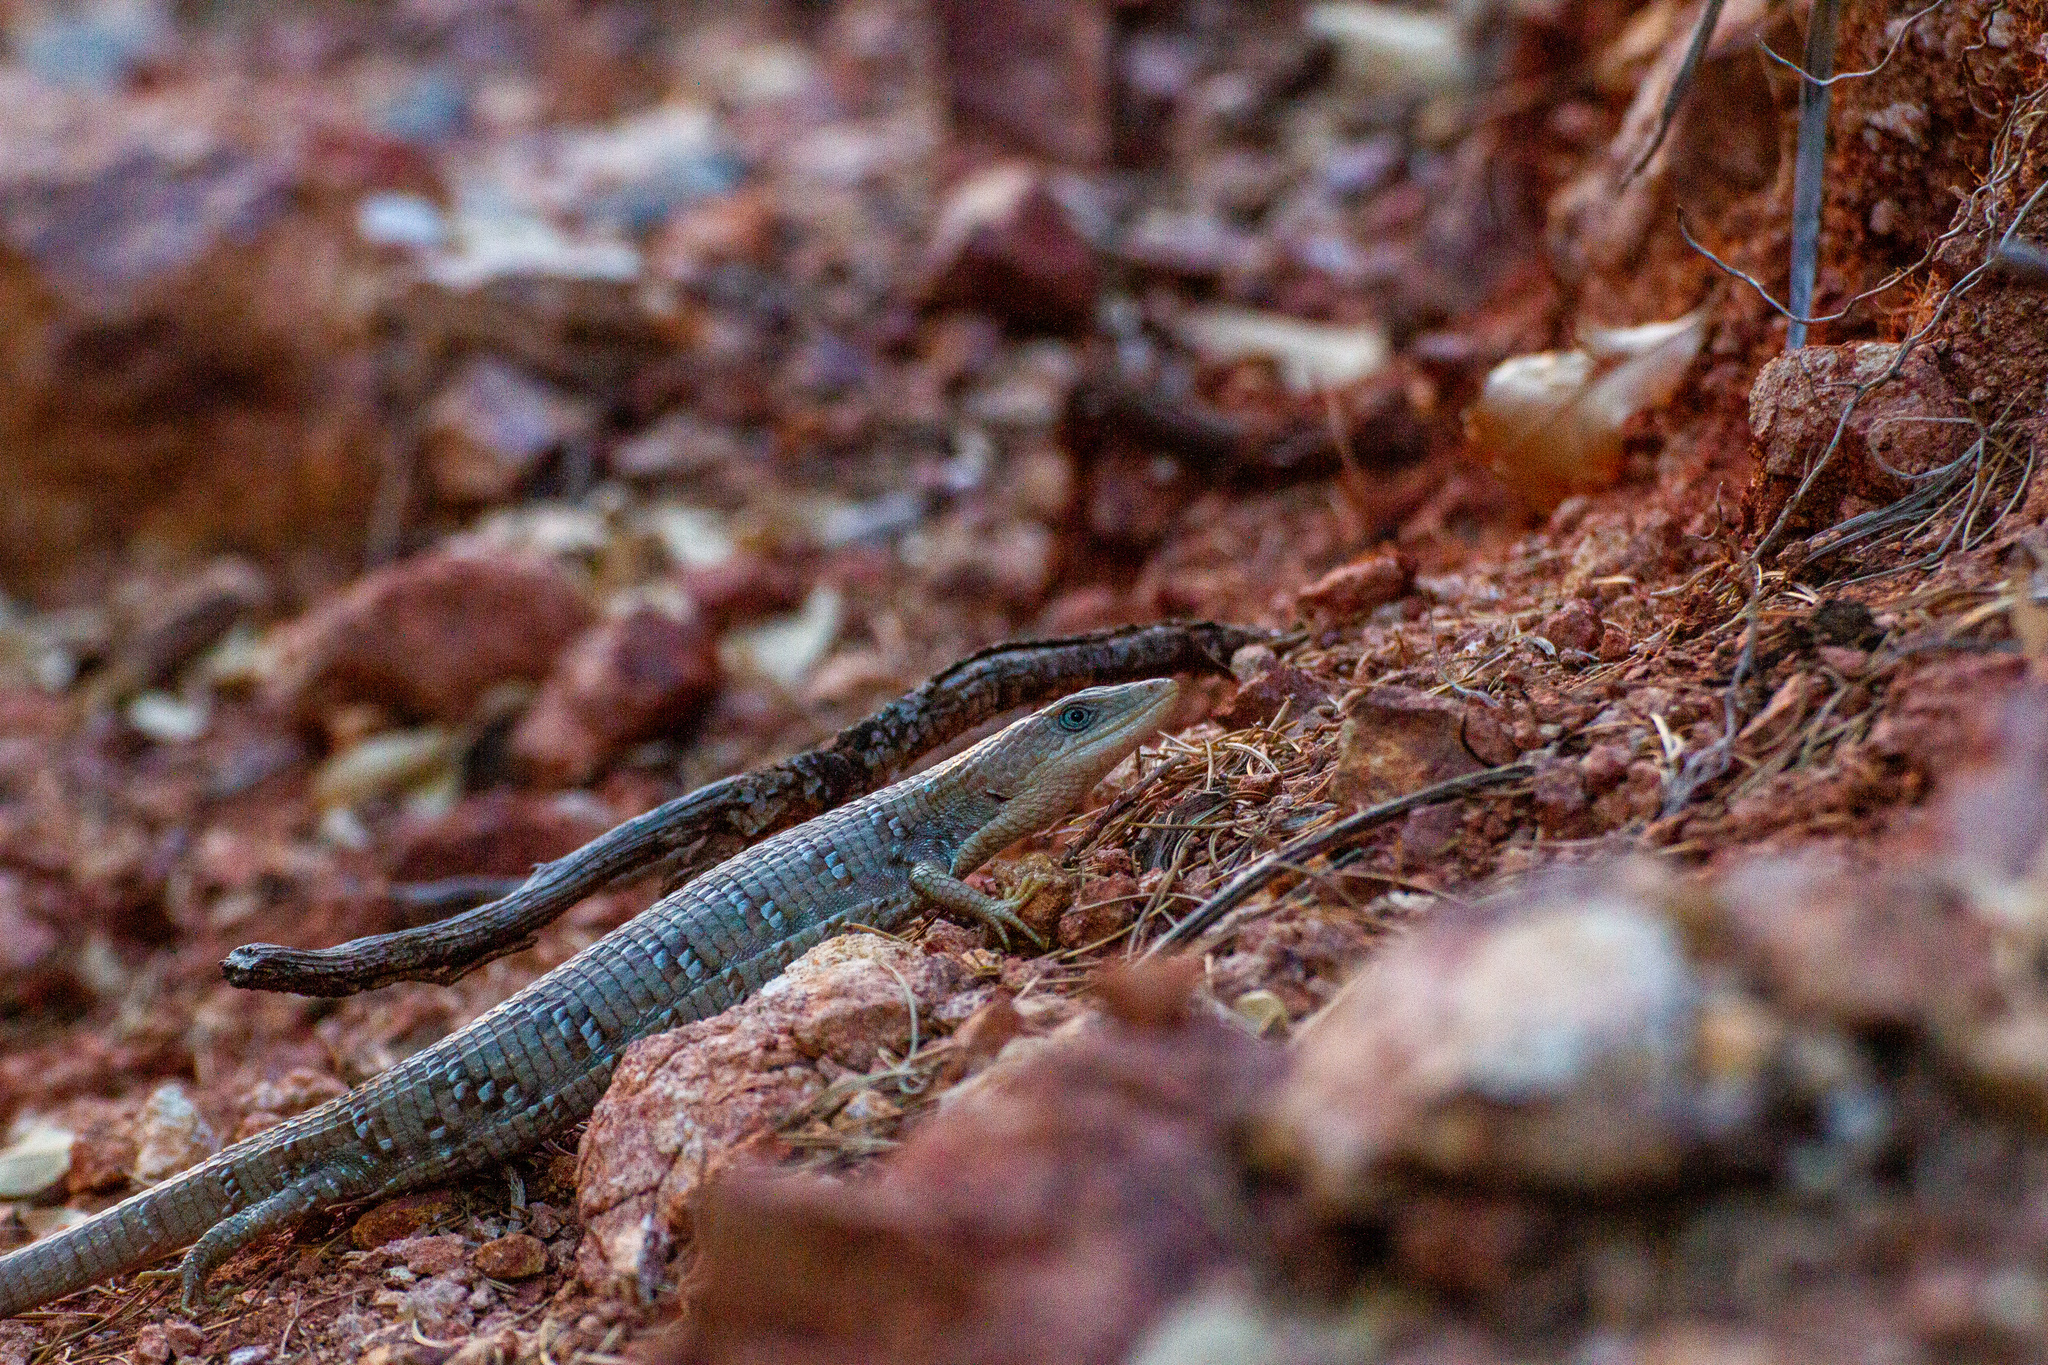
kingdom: Animalia
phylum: Chordata
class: Squamata
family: Anguidae
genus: Gerrhonotus
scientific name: Gerrhonotus infernalis
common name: Texas alligator lizard
